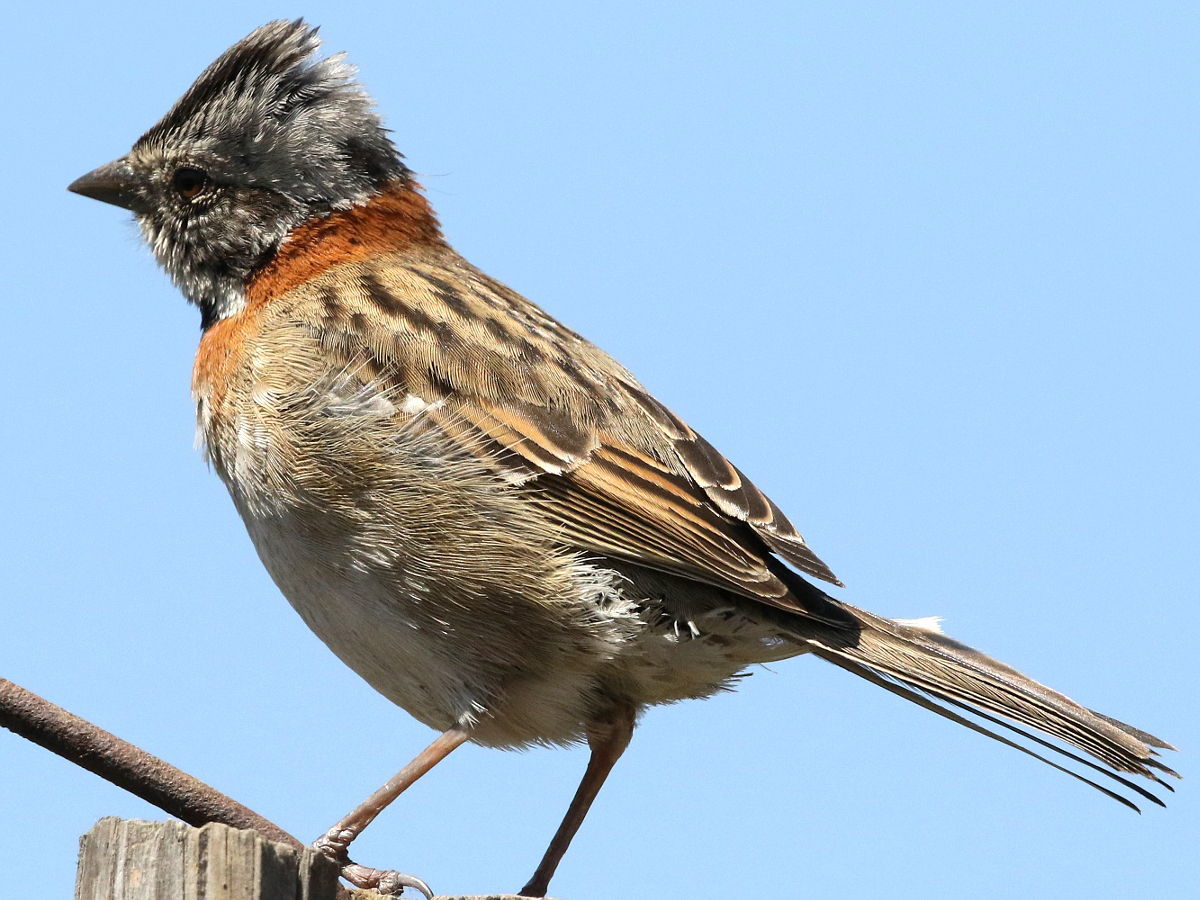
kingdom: Animalia
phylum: Chordata
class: Aves
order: Passeriformes
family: Passerellidae
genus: Zonotrichia
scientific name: Zonotrichia capensis
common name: Rufous-collared sparrow
